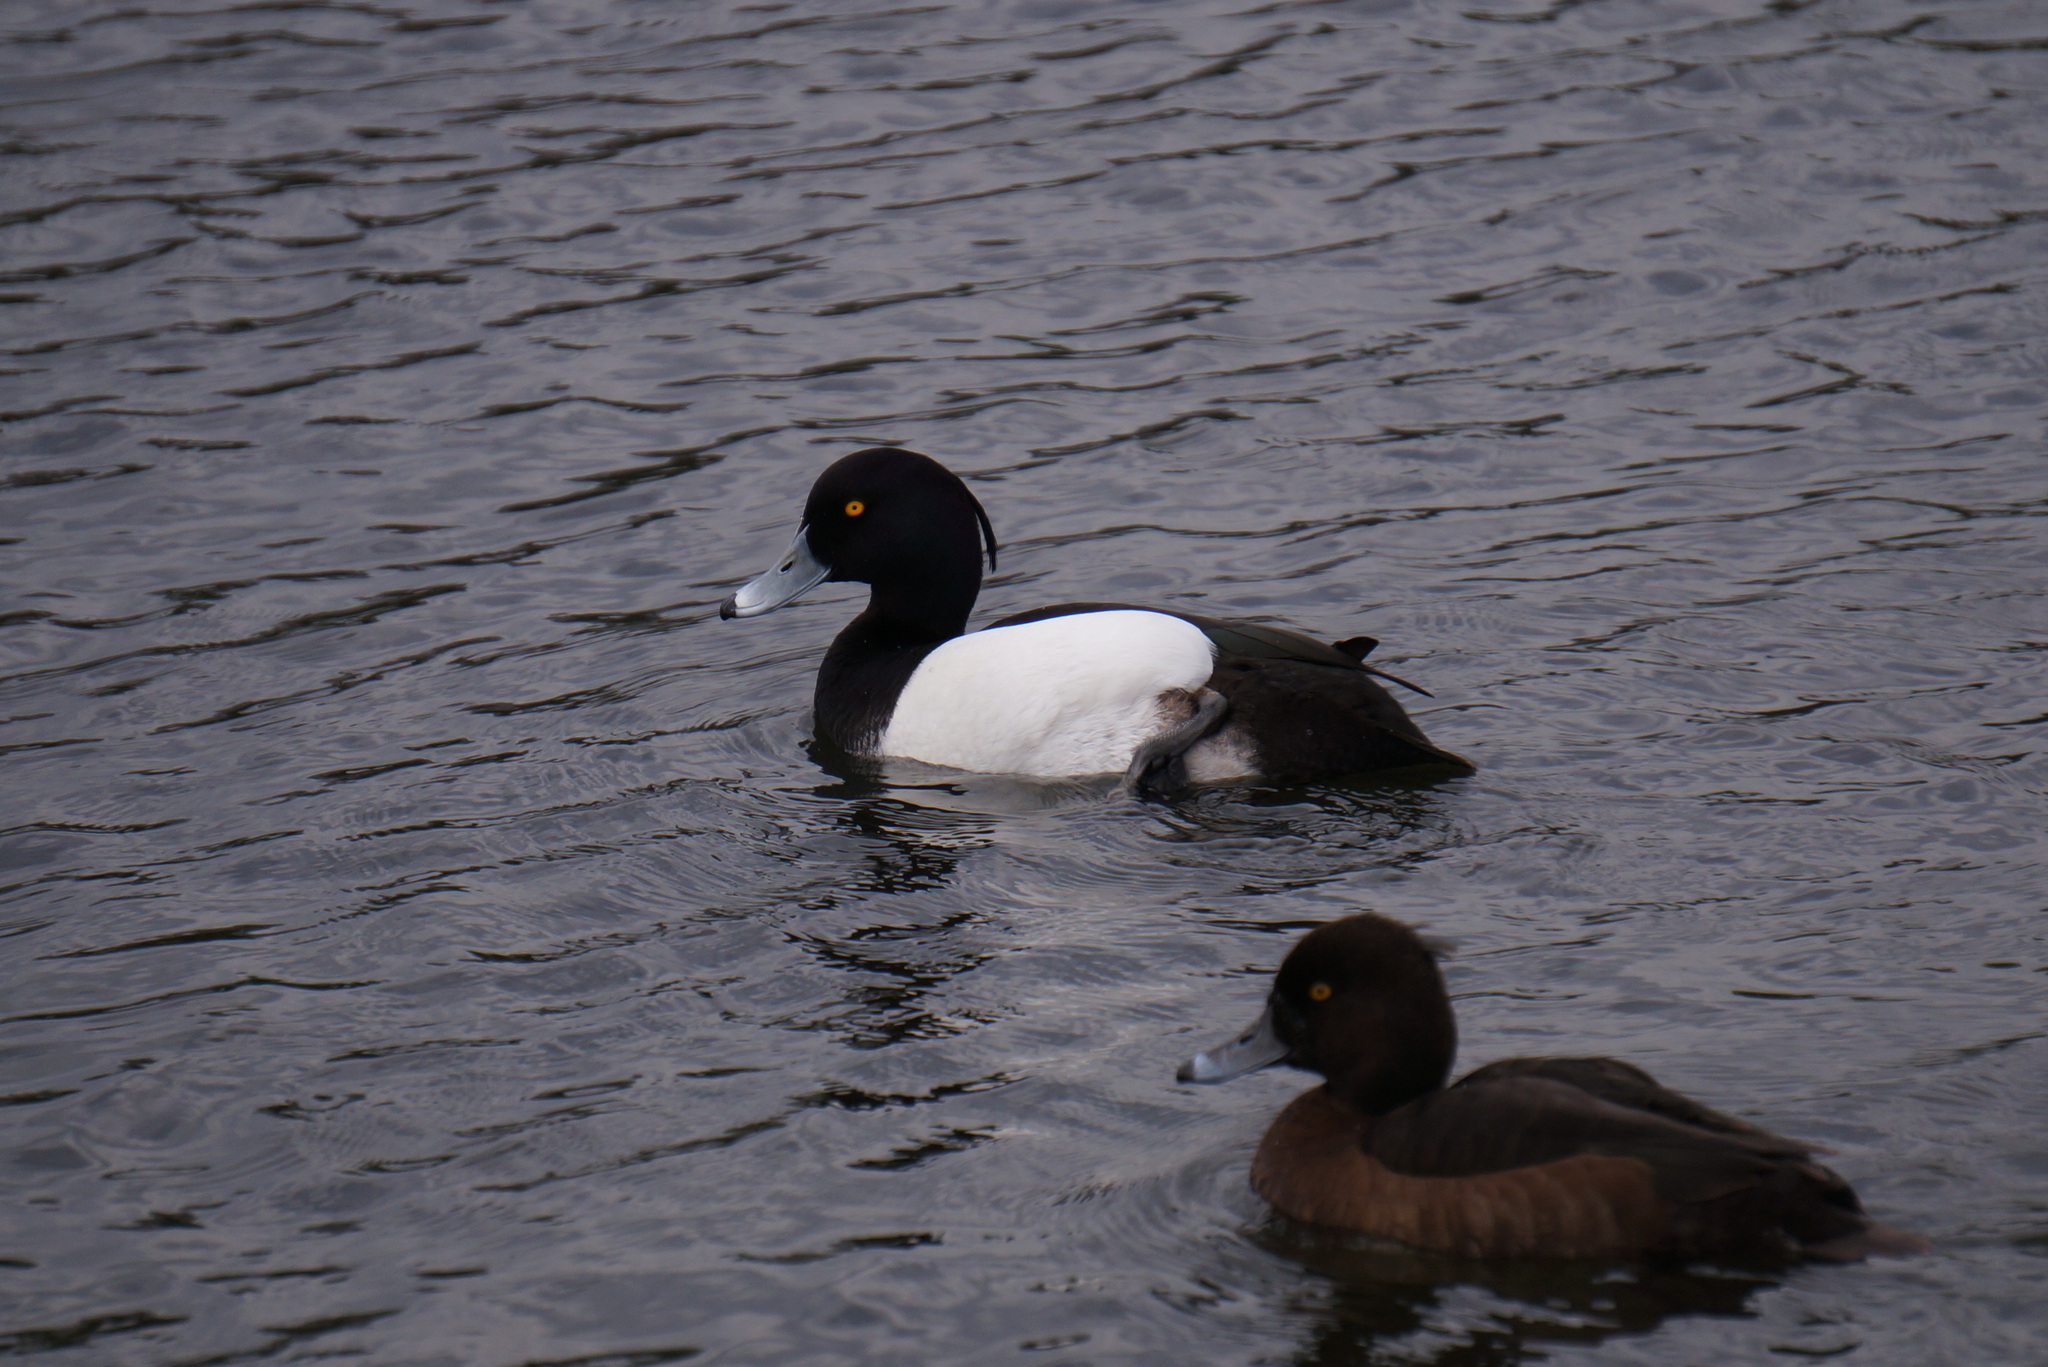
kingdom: Animalia
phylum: Chordata
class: Aves
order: Anseriformes
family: Anatidae
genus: Aythya
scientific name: Aythya fuligula
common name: Tufted duck
